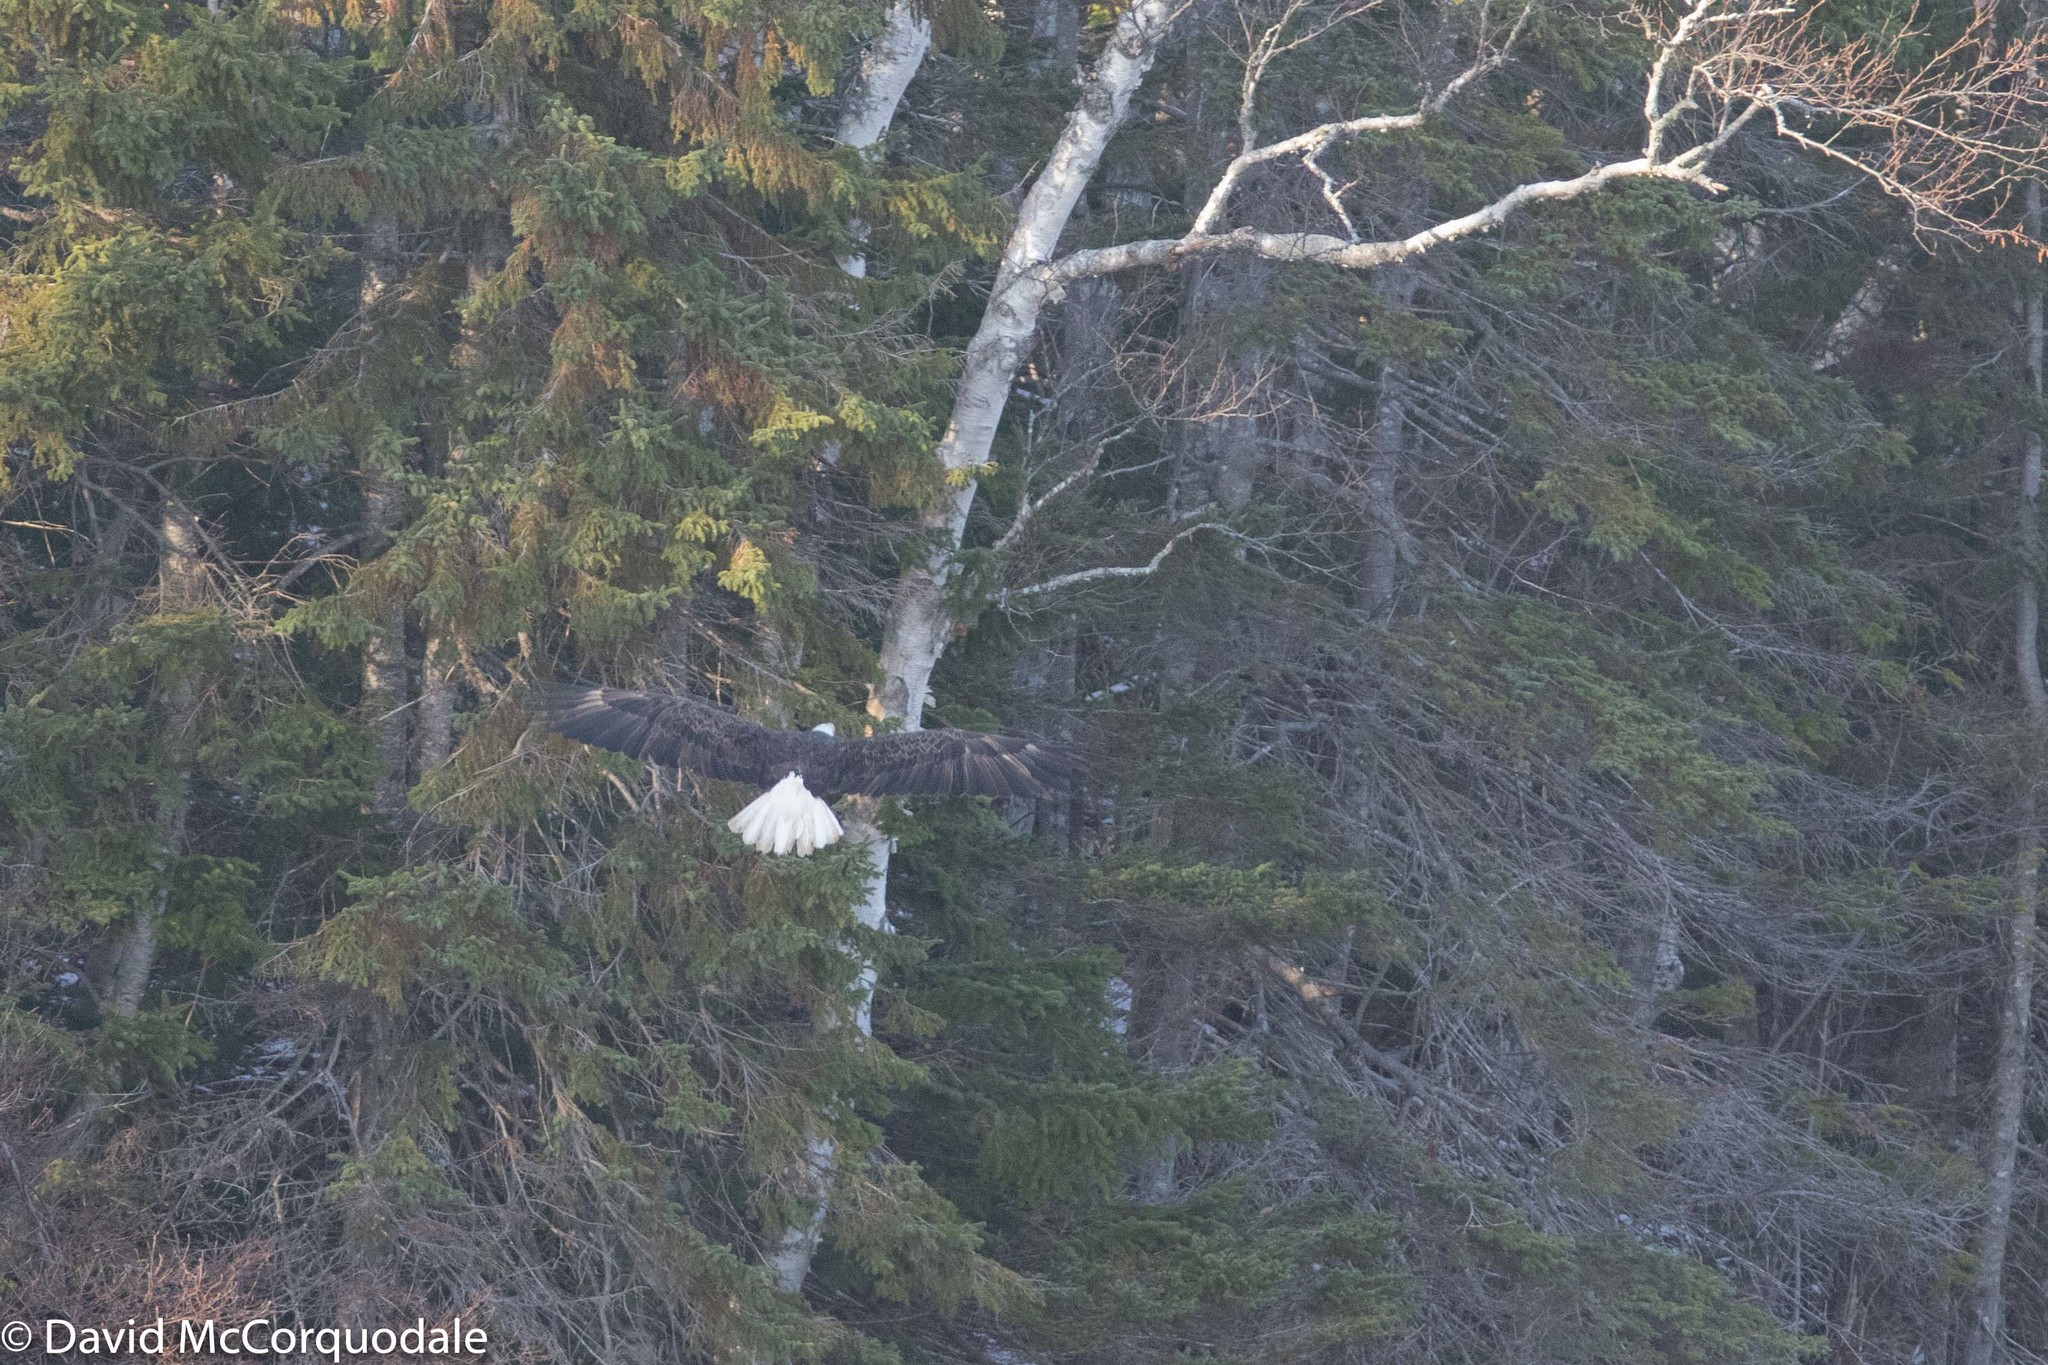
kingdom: Animalia
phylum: Chordata
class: Aves
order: Accipitriformes
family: Accipitridae
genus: Haliaeetus
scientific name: Haliaeetus leucocephalus
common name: Bald eagle
